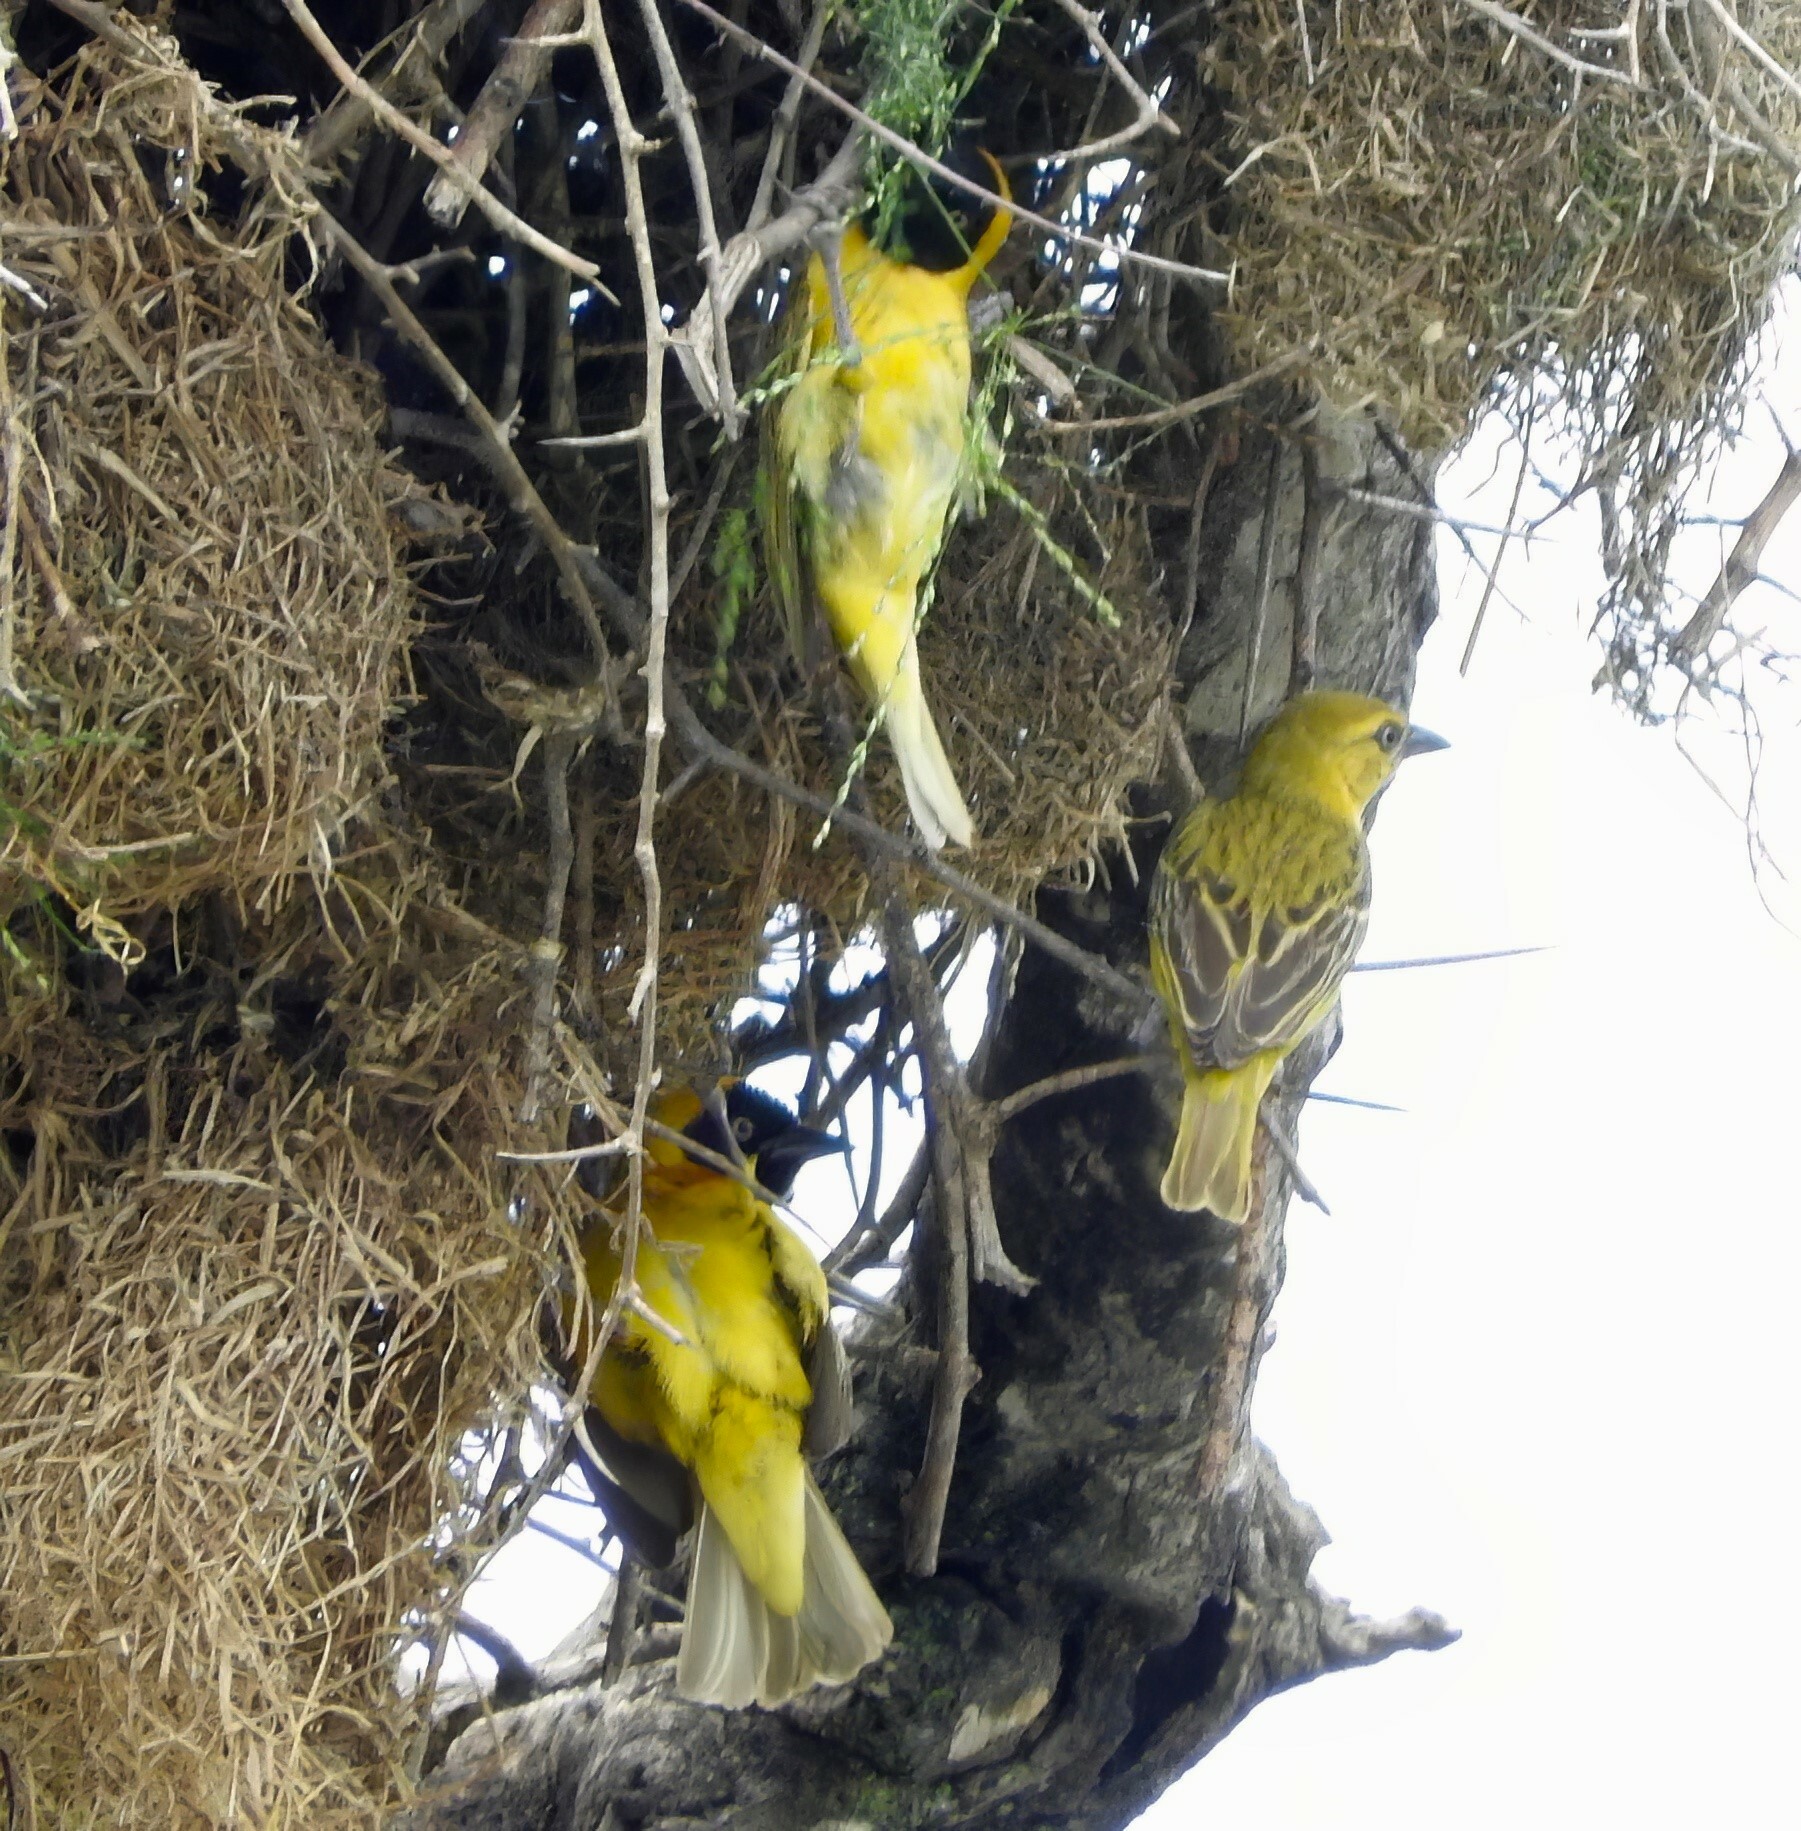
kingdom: Animalia
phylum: Chordata
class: Aves
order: Passeriformes
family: Ploceidae
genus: Ploceus
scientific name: Ploceus intermedius
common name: Lesser masked weaver
